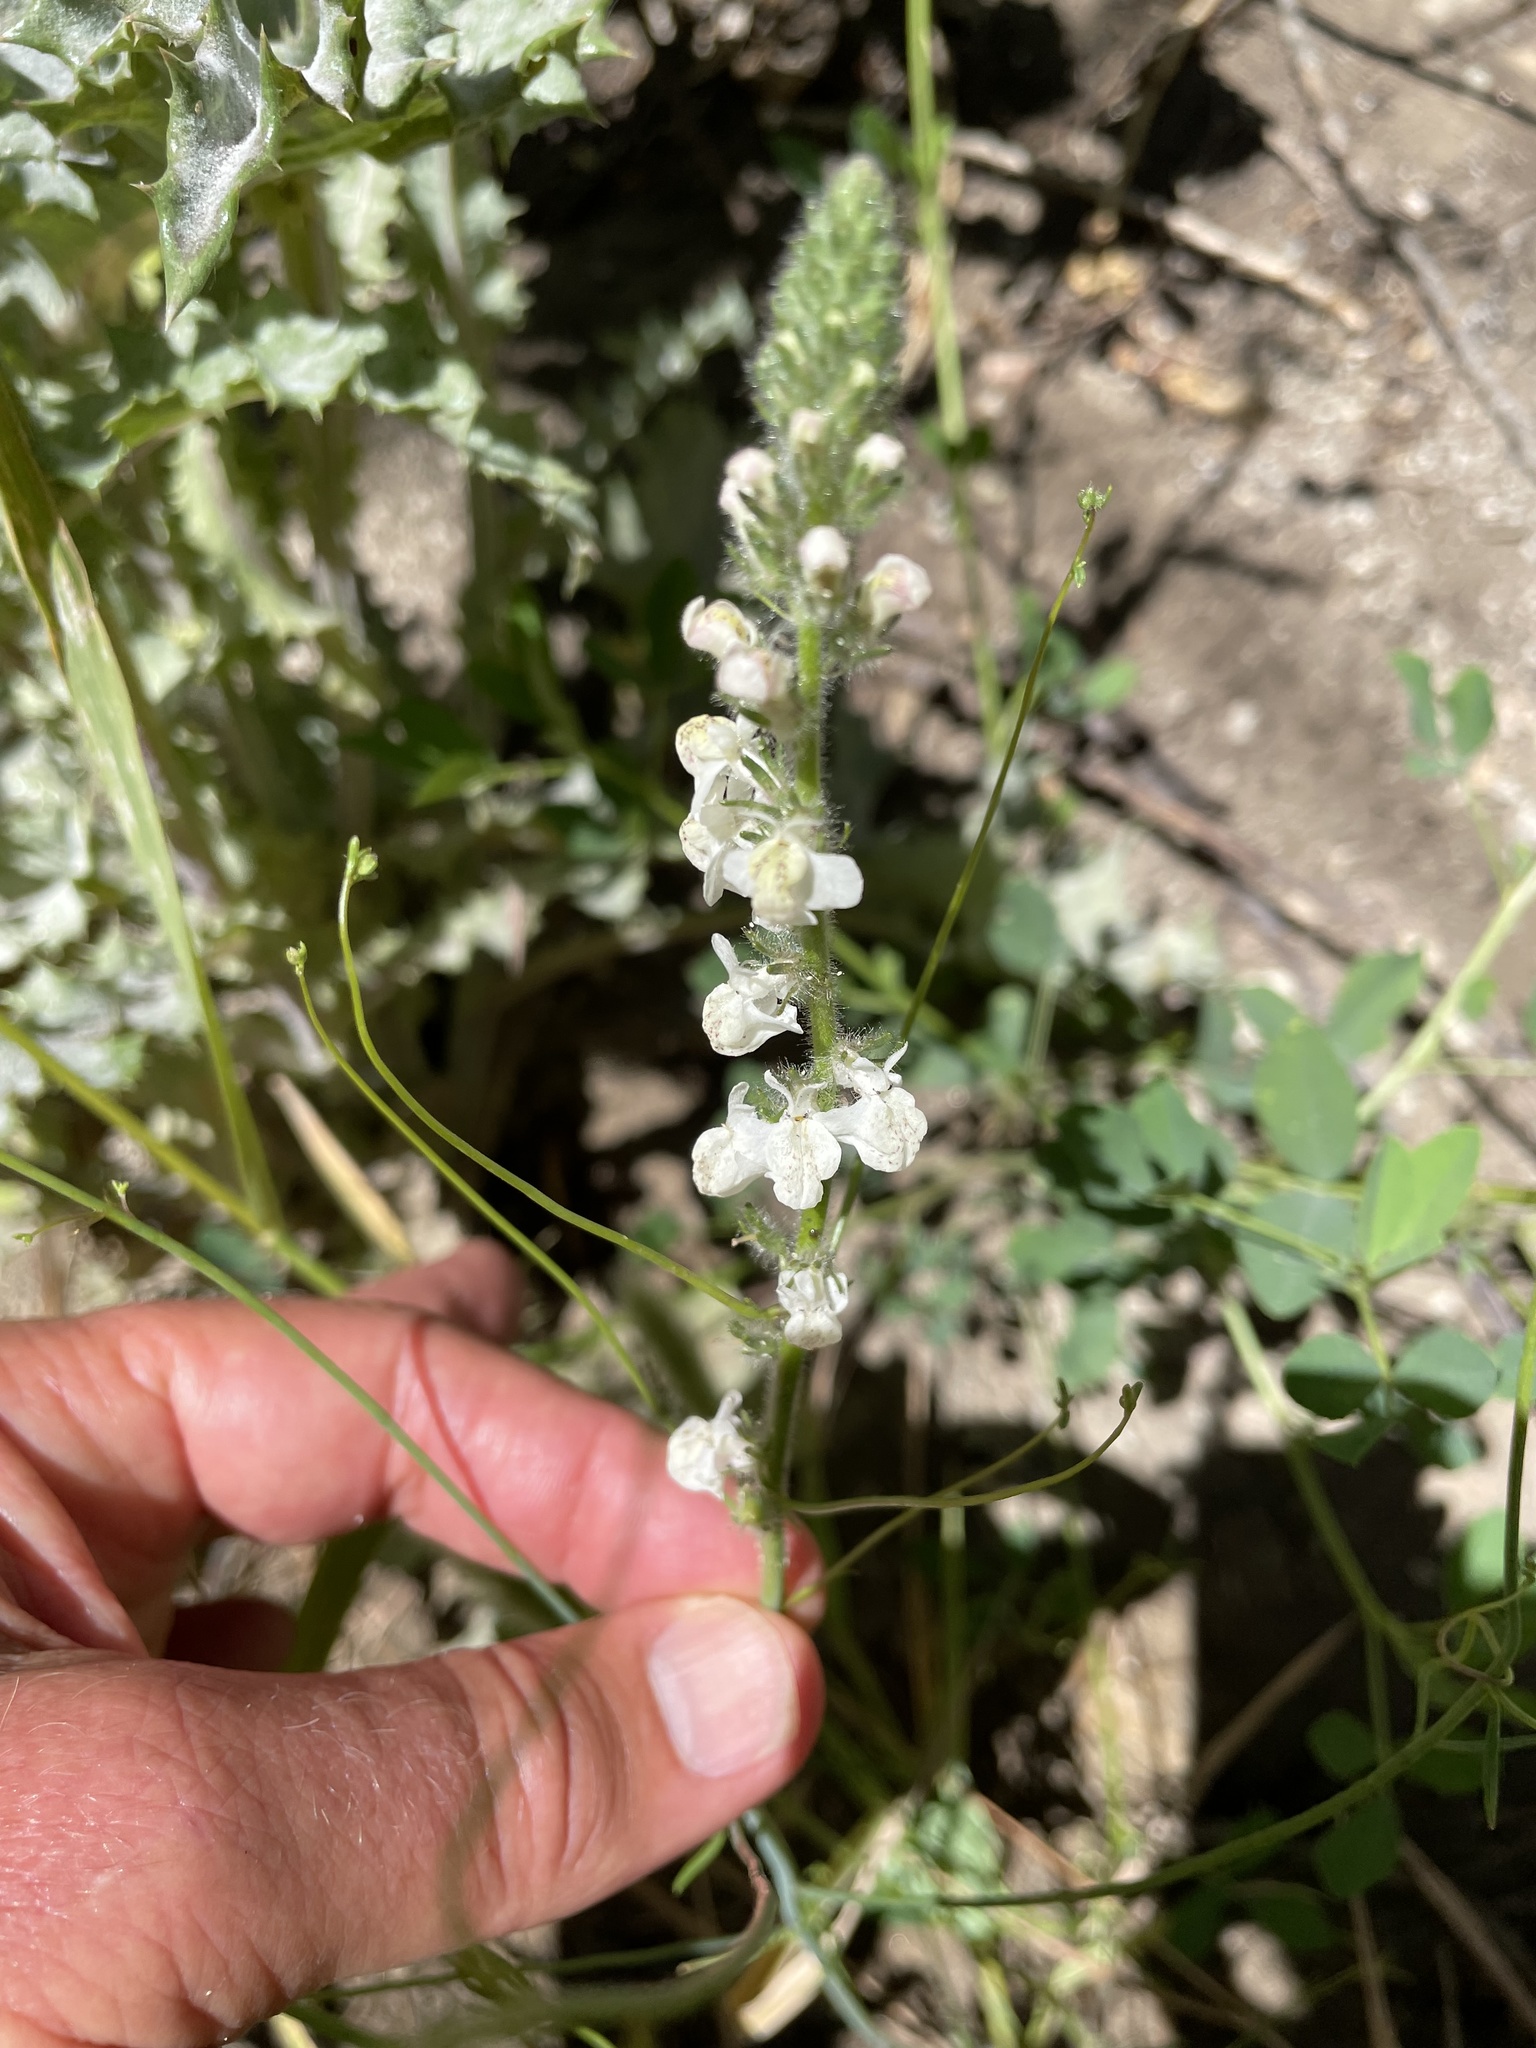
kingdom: Plantae
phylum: Tracheophyta
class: Magnoliopsida
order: Lamiales
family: Plantaginaceae
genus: Sairocarpus
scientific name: Sairocarpus coulterianus
